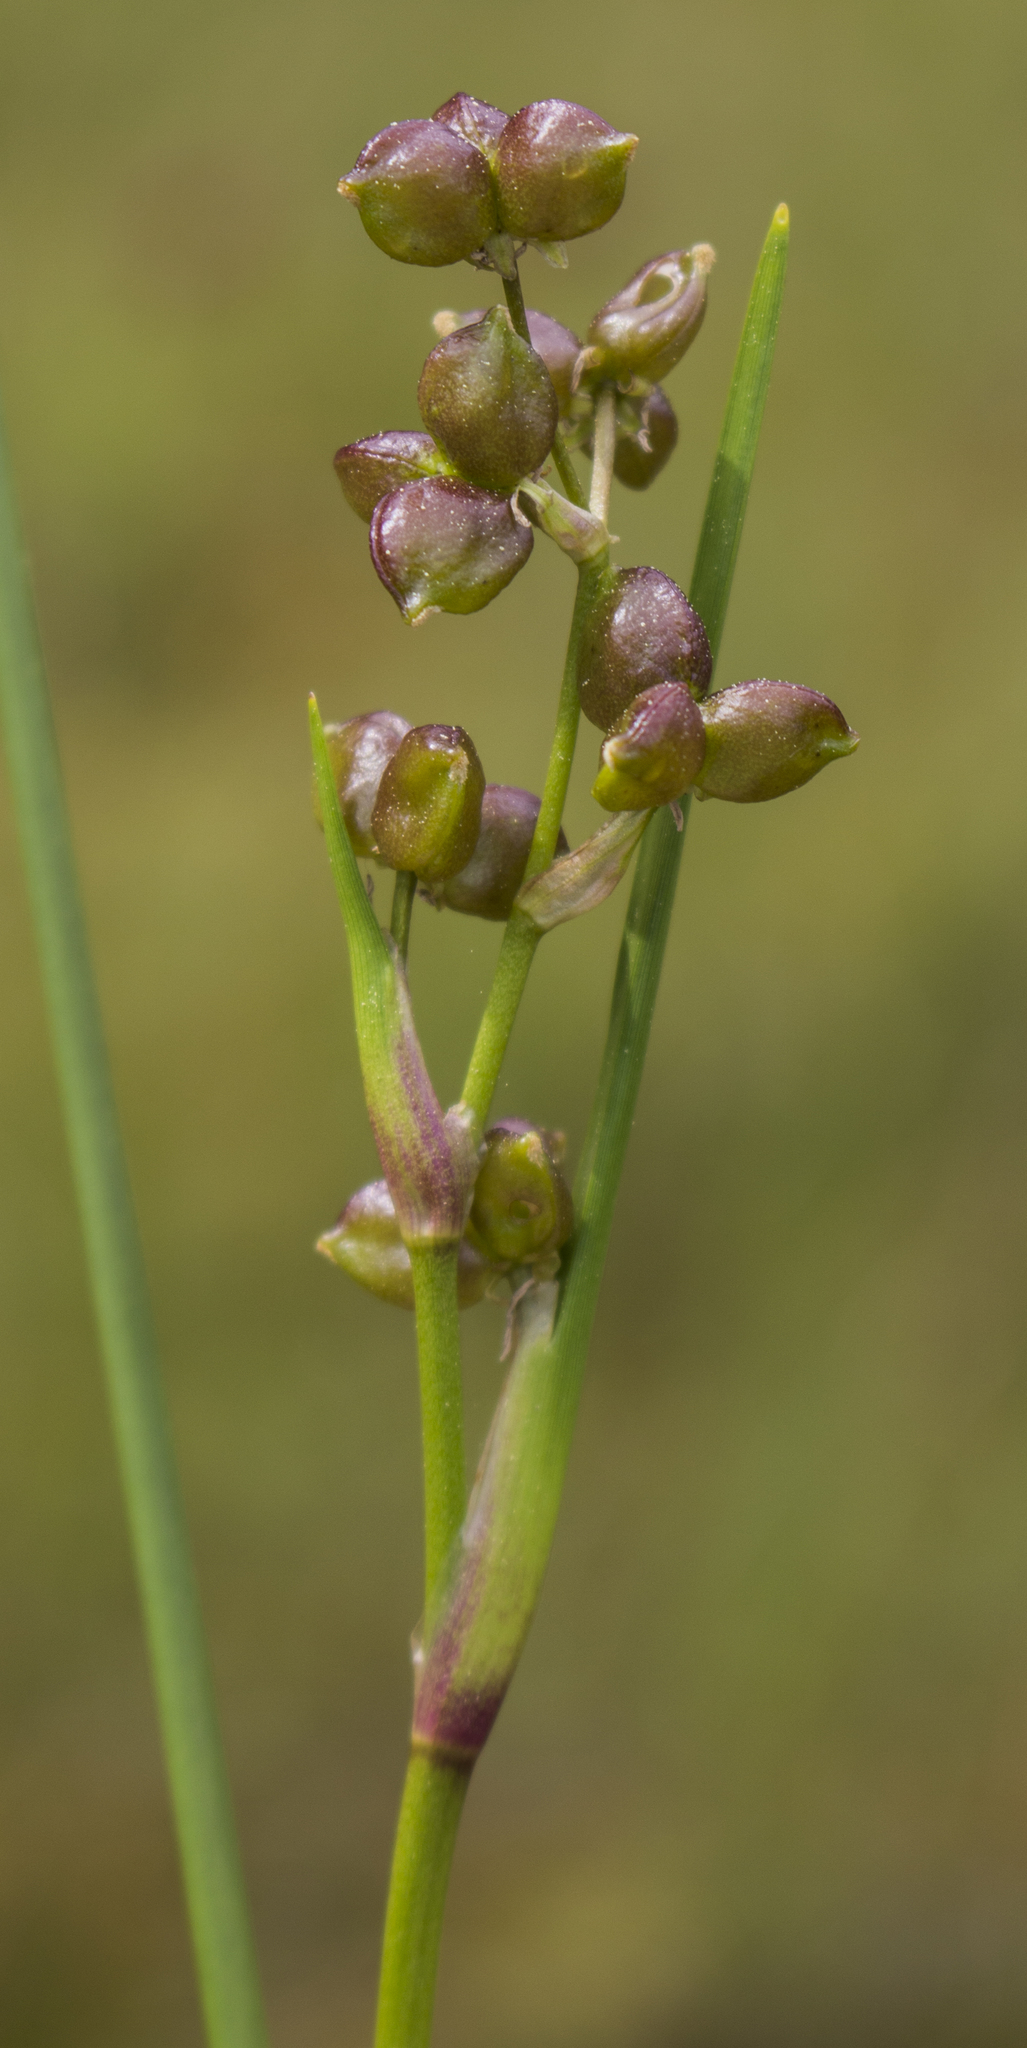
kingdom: Plantae
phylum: Tracheophyta
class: Liliopsida
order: Alismatales
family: Scheuchzeriaceae
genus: Scheuchzeria
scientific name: Scheuchzeria palustris
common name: Rannoch-rush
